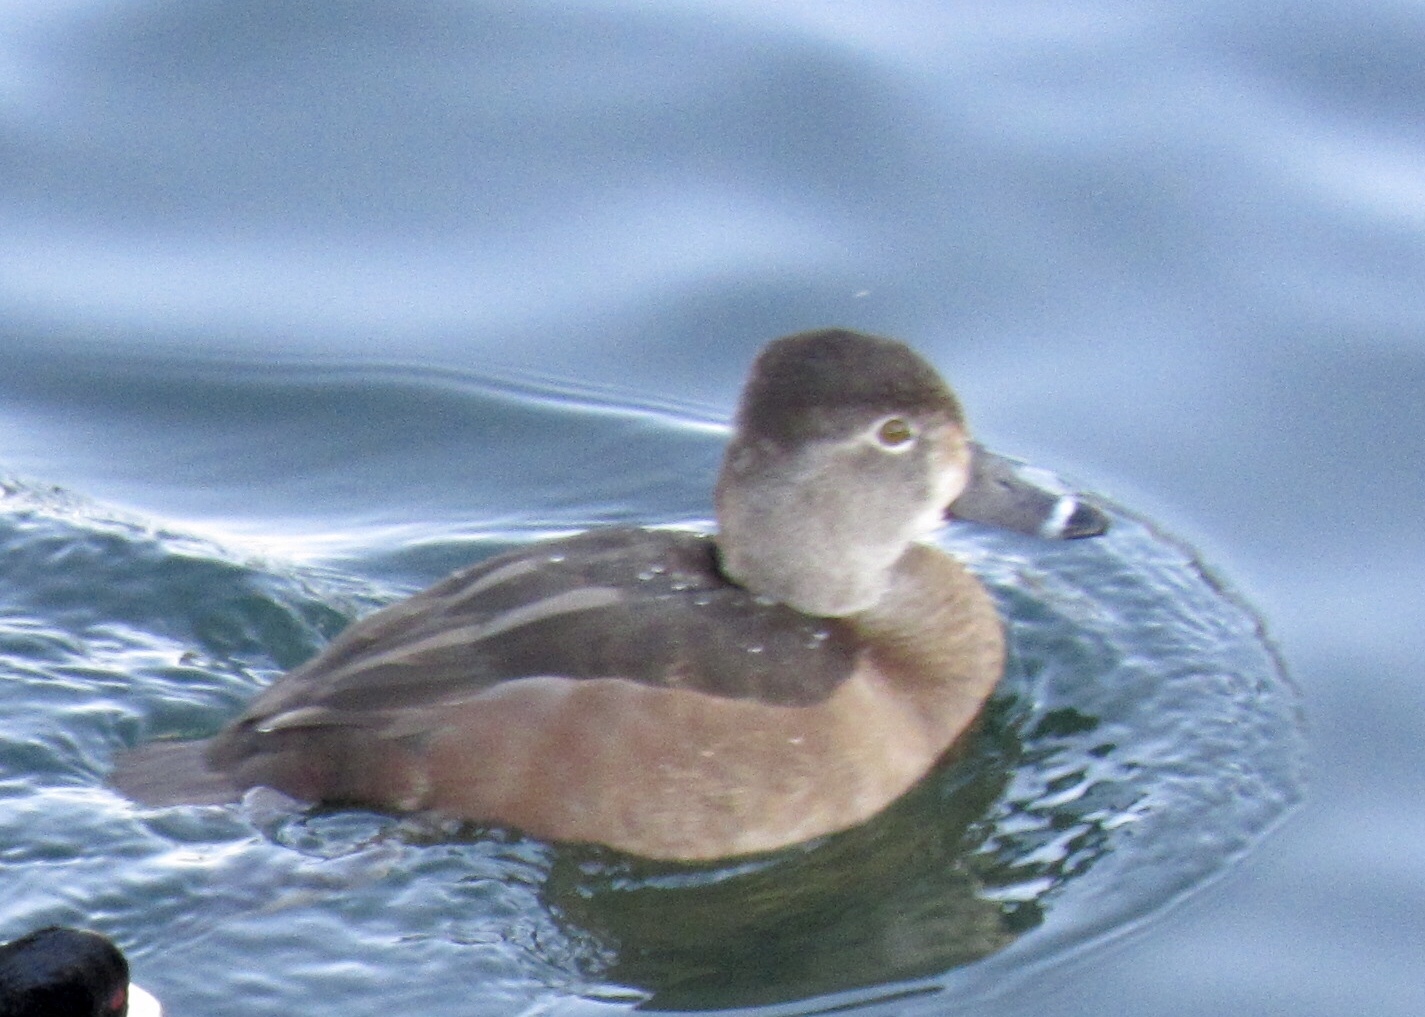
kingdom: Animalia
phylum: Chordata
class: Aves
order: Anseriformes
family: Anatidae
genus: Aythya
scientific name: Aythya collaris
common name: Ring-necked duck
